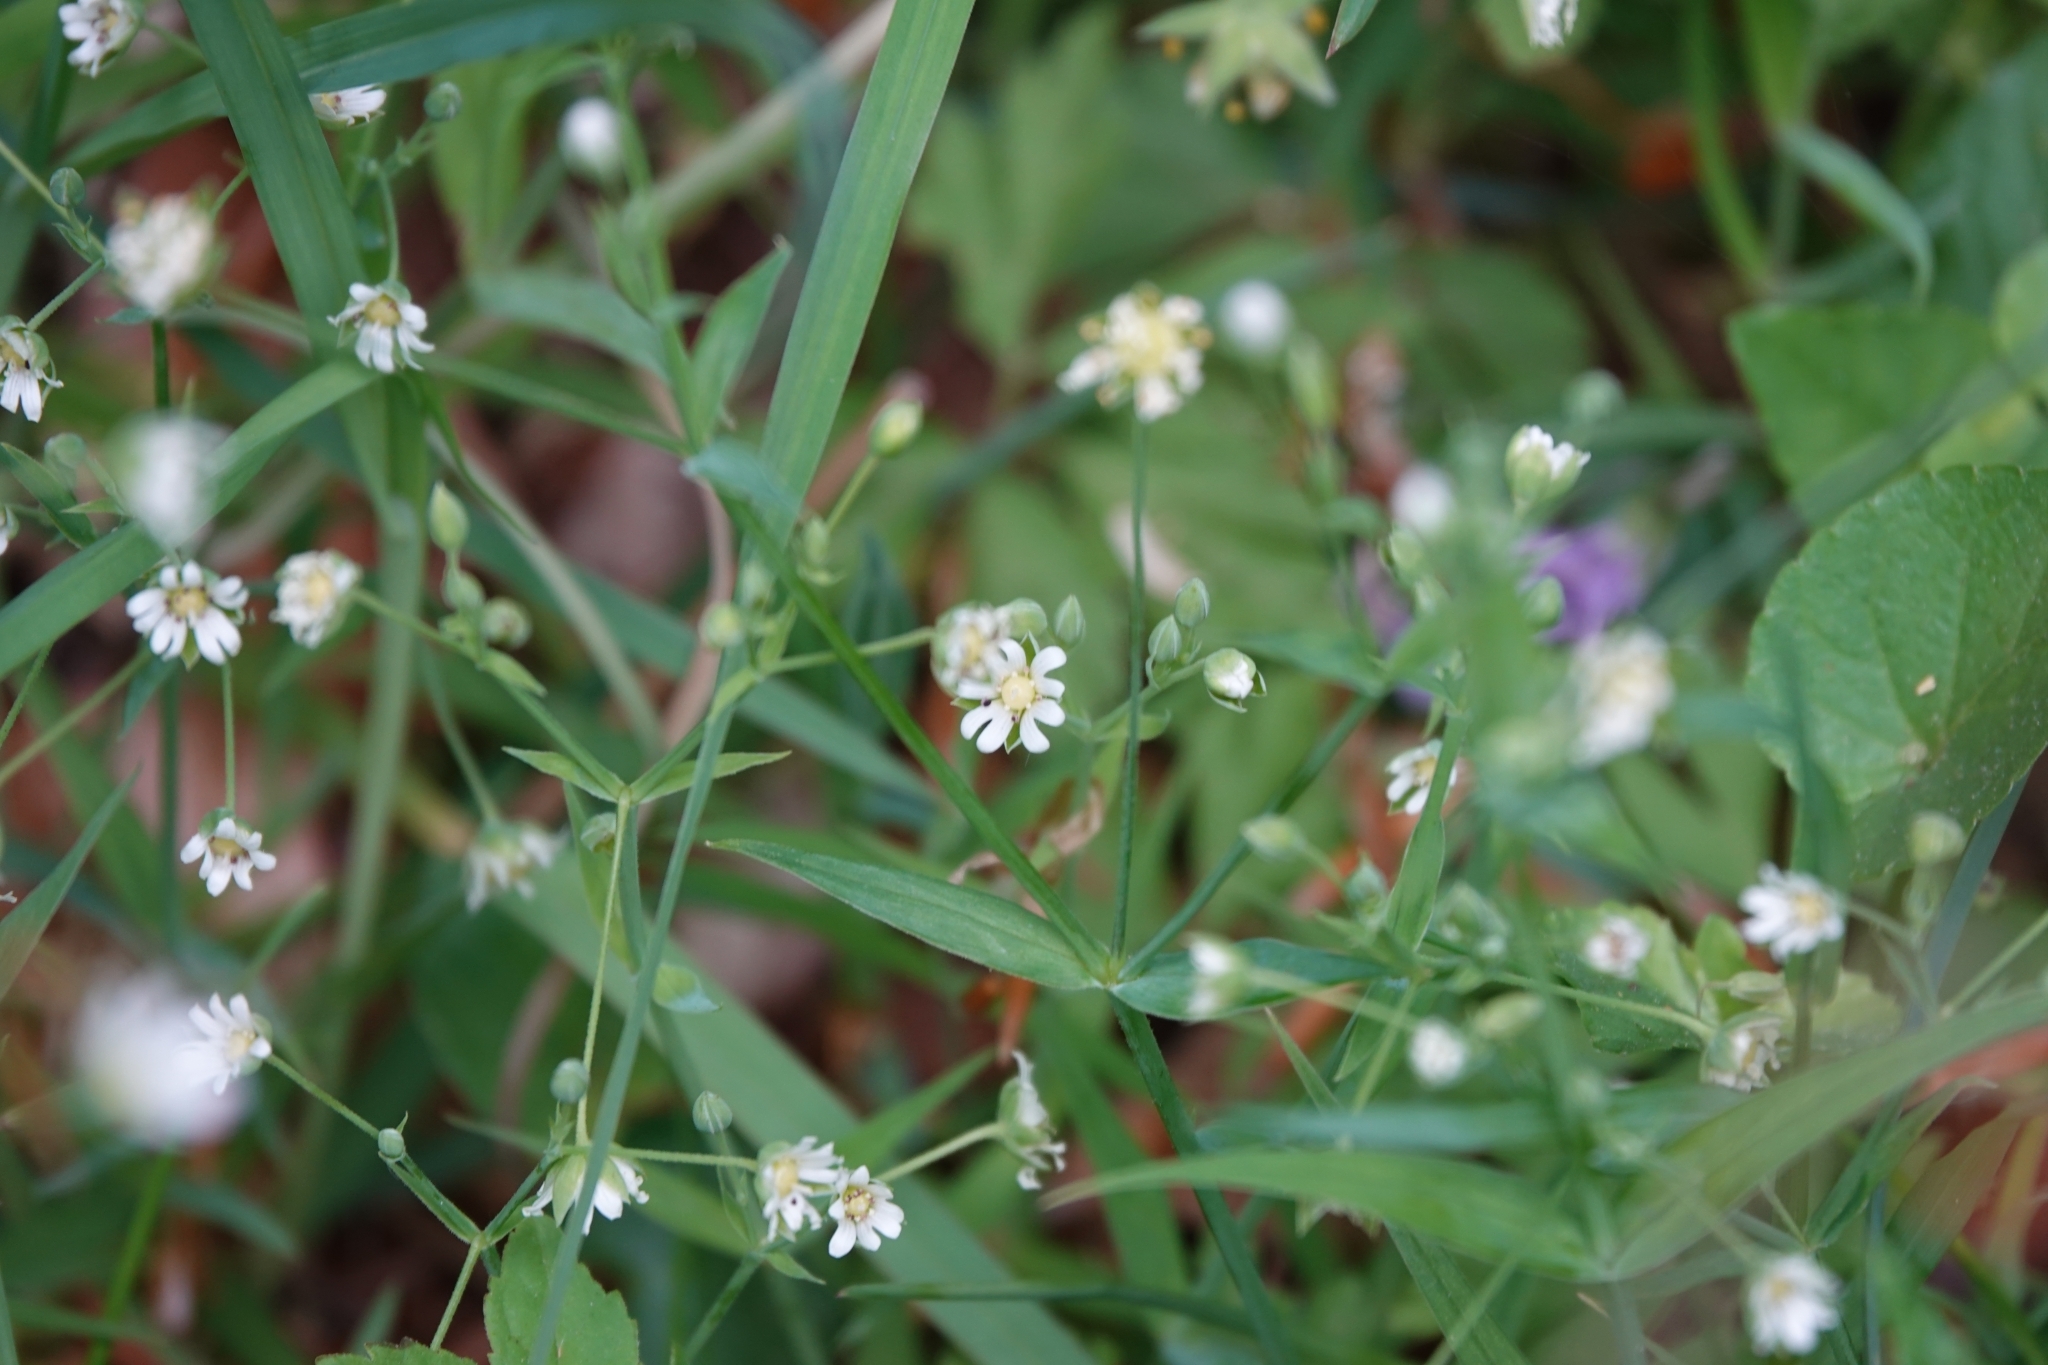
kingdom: Plantae
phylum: Tracheophyta
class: Magnoliopsida
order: Caryophyllales
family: Caryophyllaceae
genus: Rabelera
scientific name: Rabelera holostea
